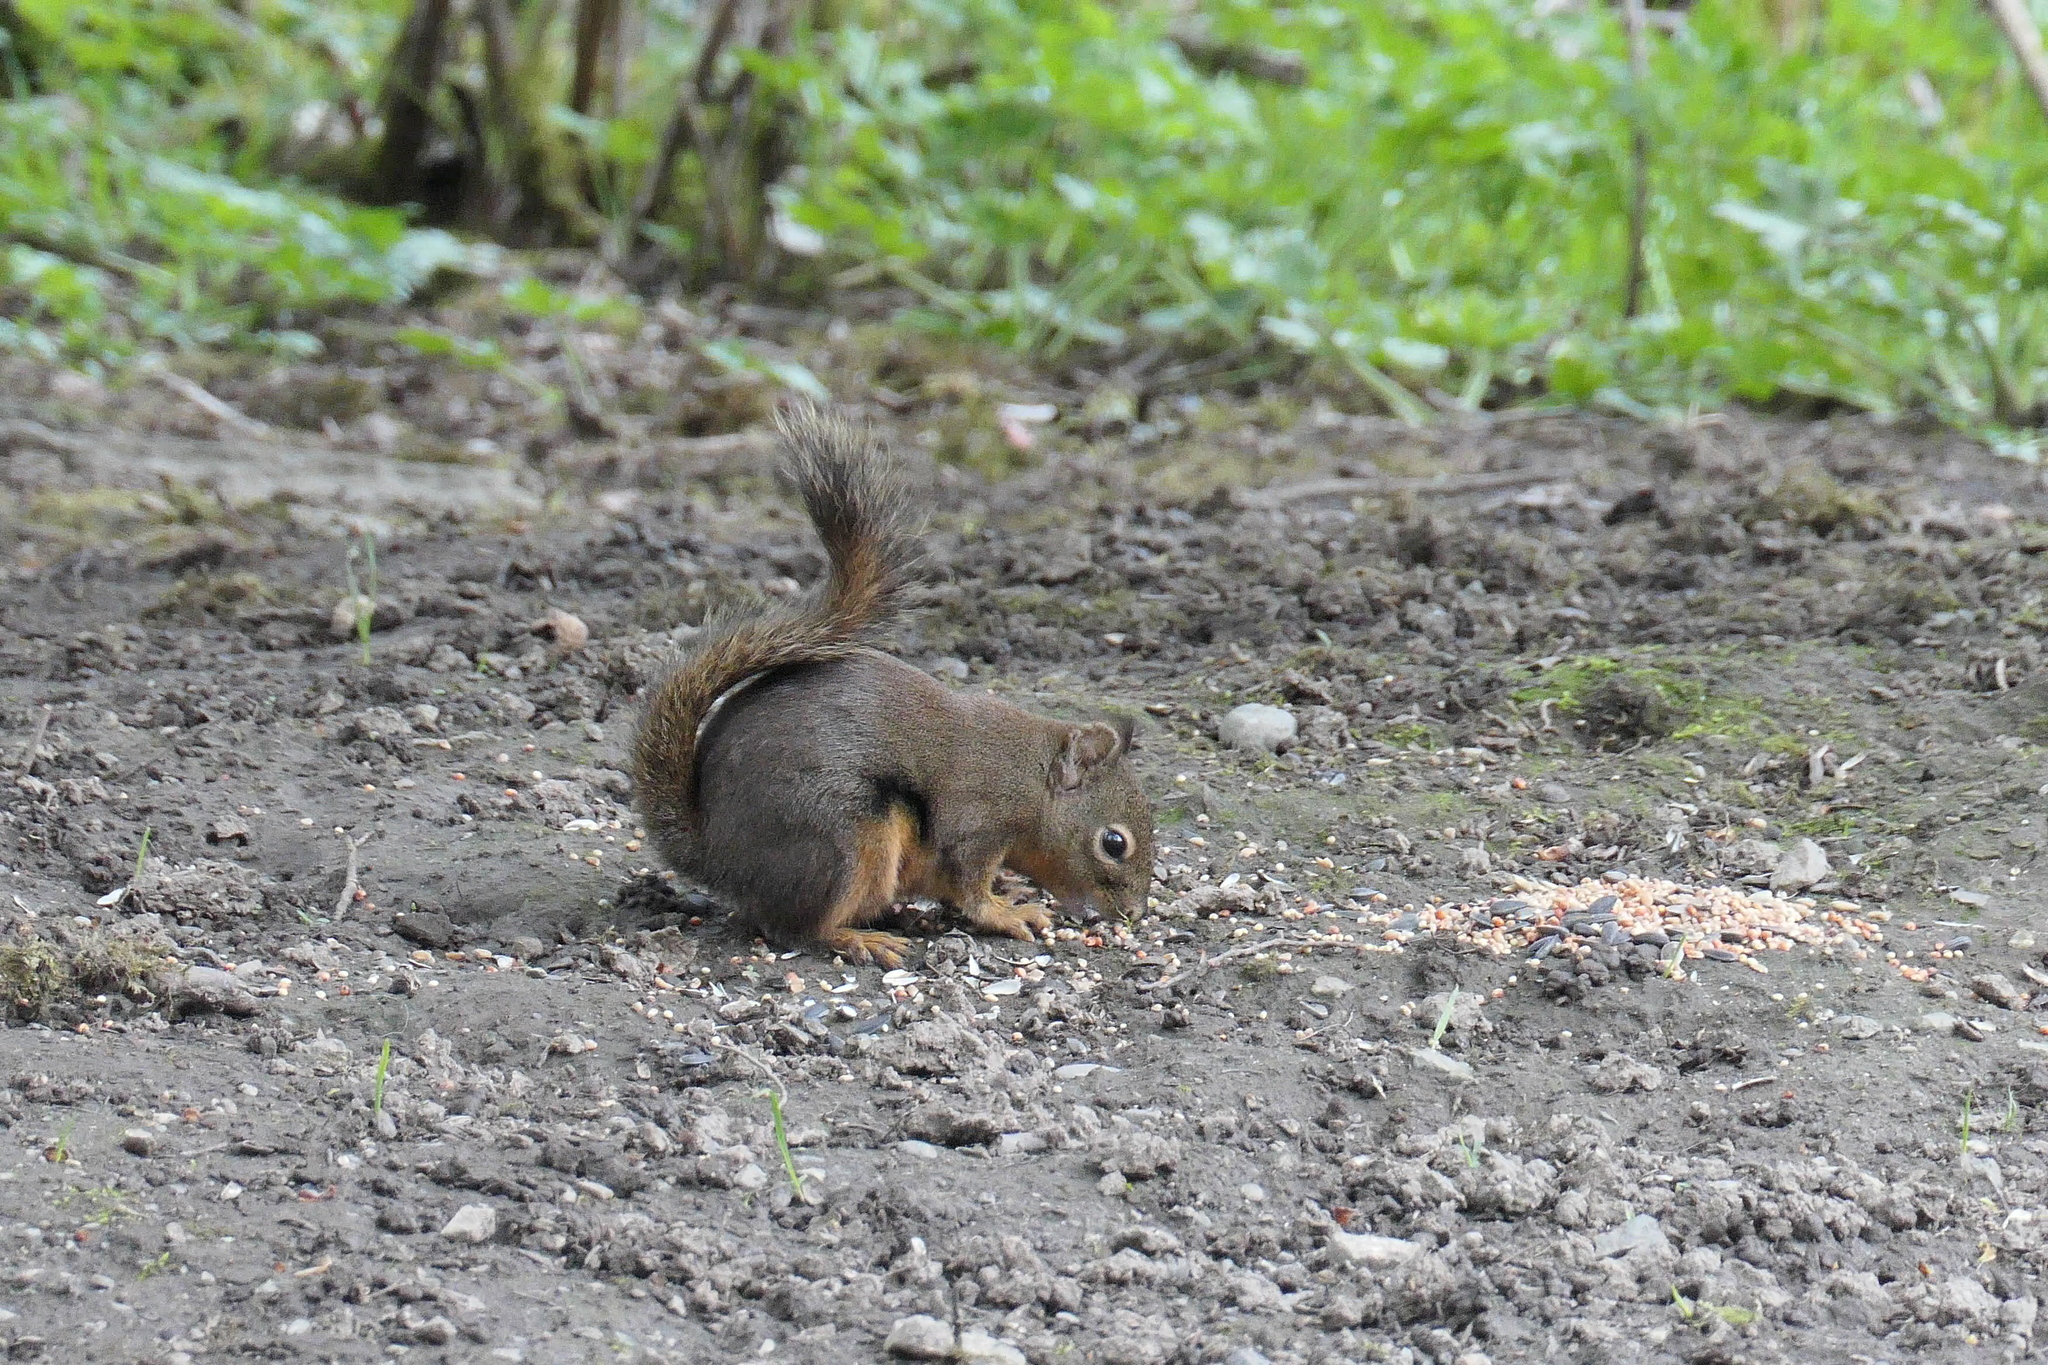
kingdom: Animalia
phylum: Chordata
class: Mammalia
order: Rodentia
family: Sciuridae
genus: Tamiasciurus
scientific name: Tamiasciurus douglasii
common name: Douglas's squirrel
